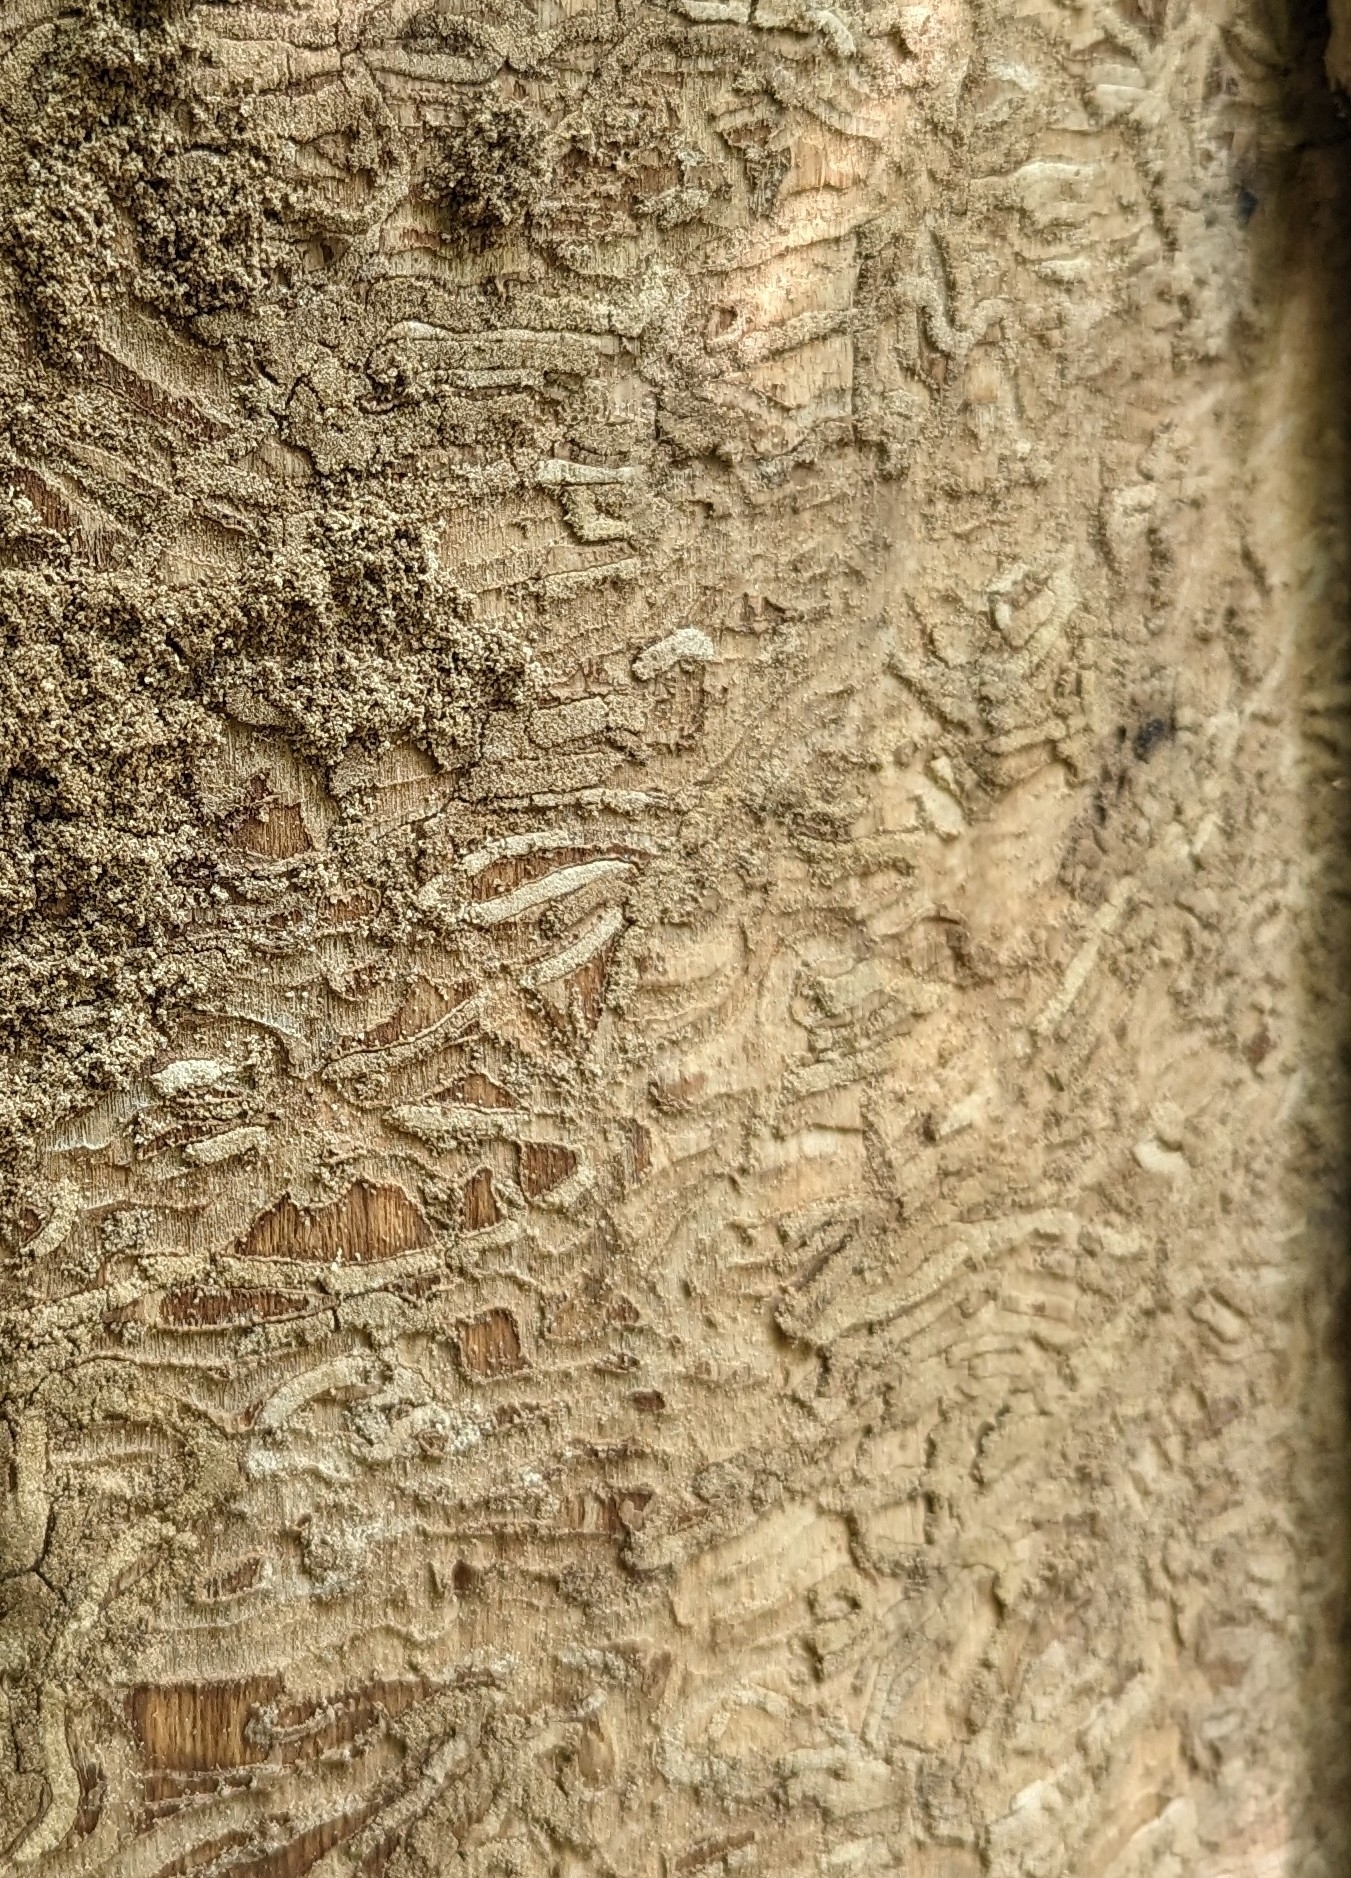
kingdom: Animalia
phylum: Arthropoda
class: Insecta
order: Coleoptera
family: Buprestidae
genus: Agrilus
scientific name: Agrilus planipennis
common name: Emerald ash borer
